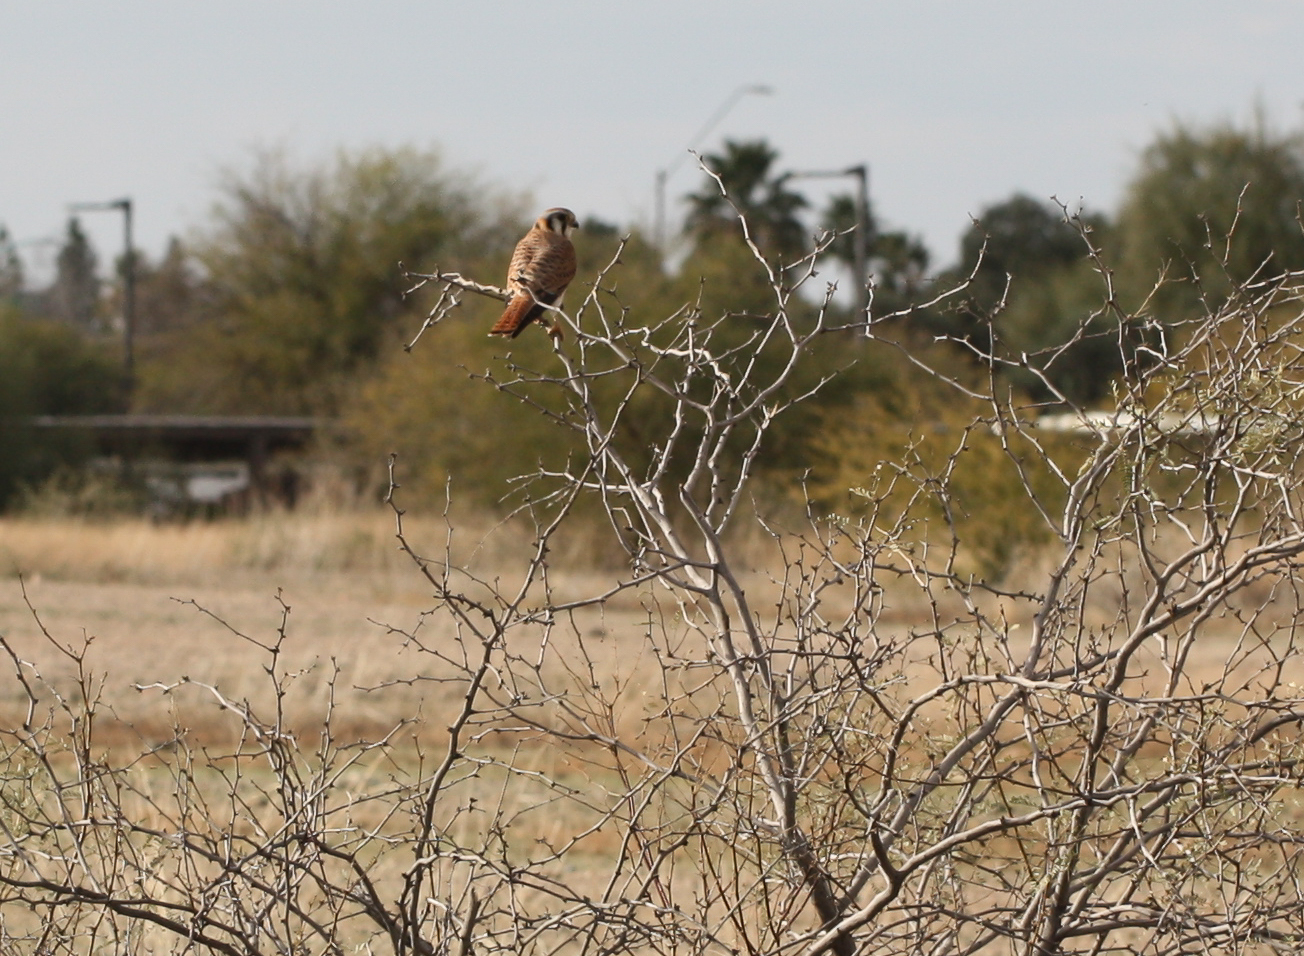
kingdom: Animalia
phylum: Chordata
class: Aves
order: Falconiformes
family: Falconidae
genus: Falco
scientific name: Falco sparverius
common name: American kestrel
